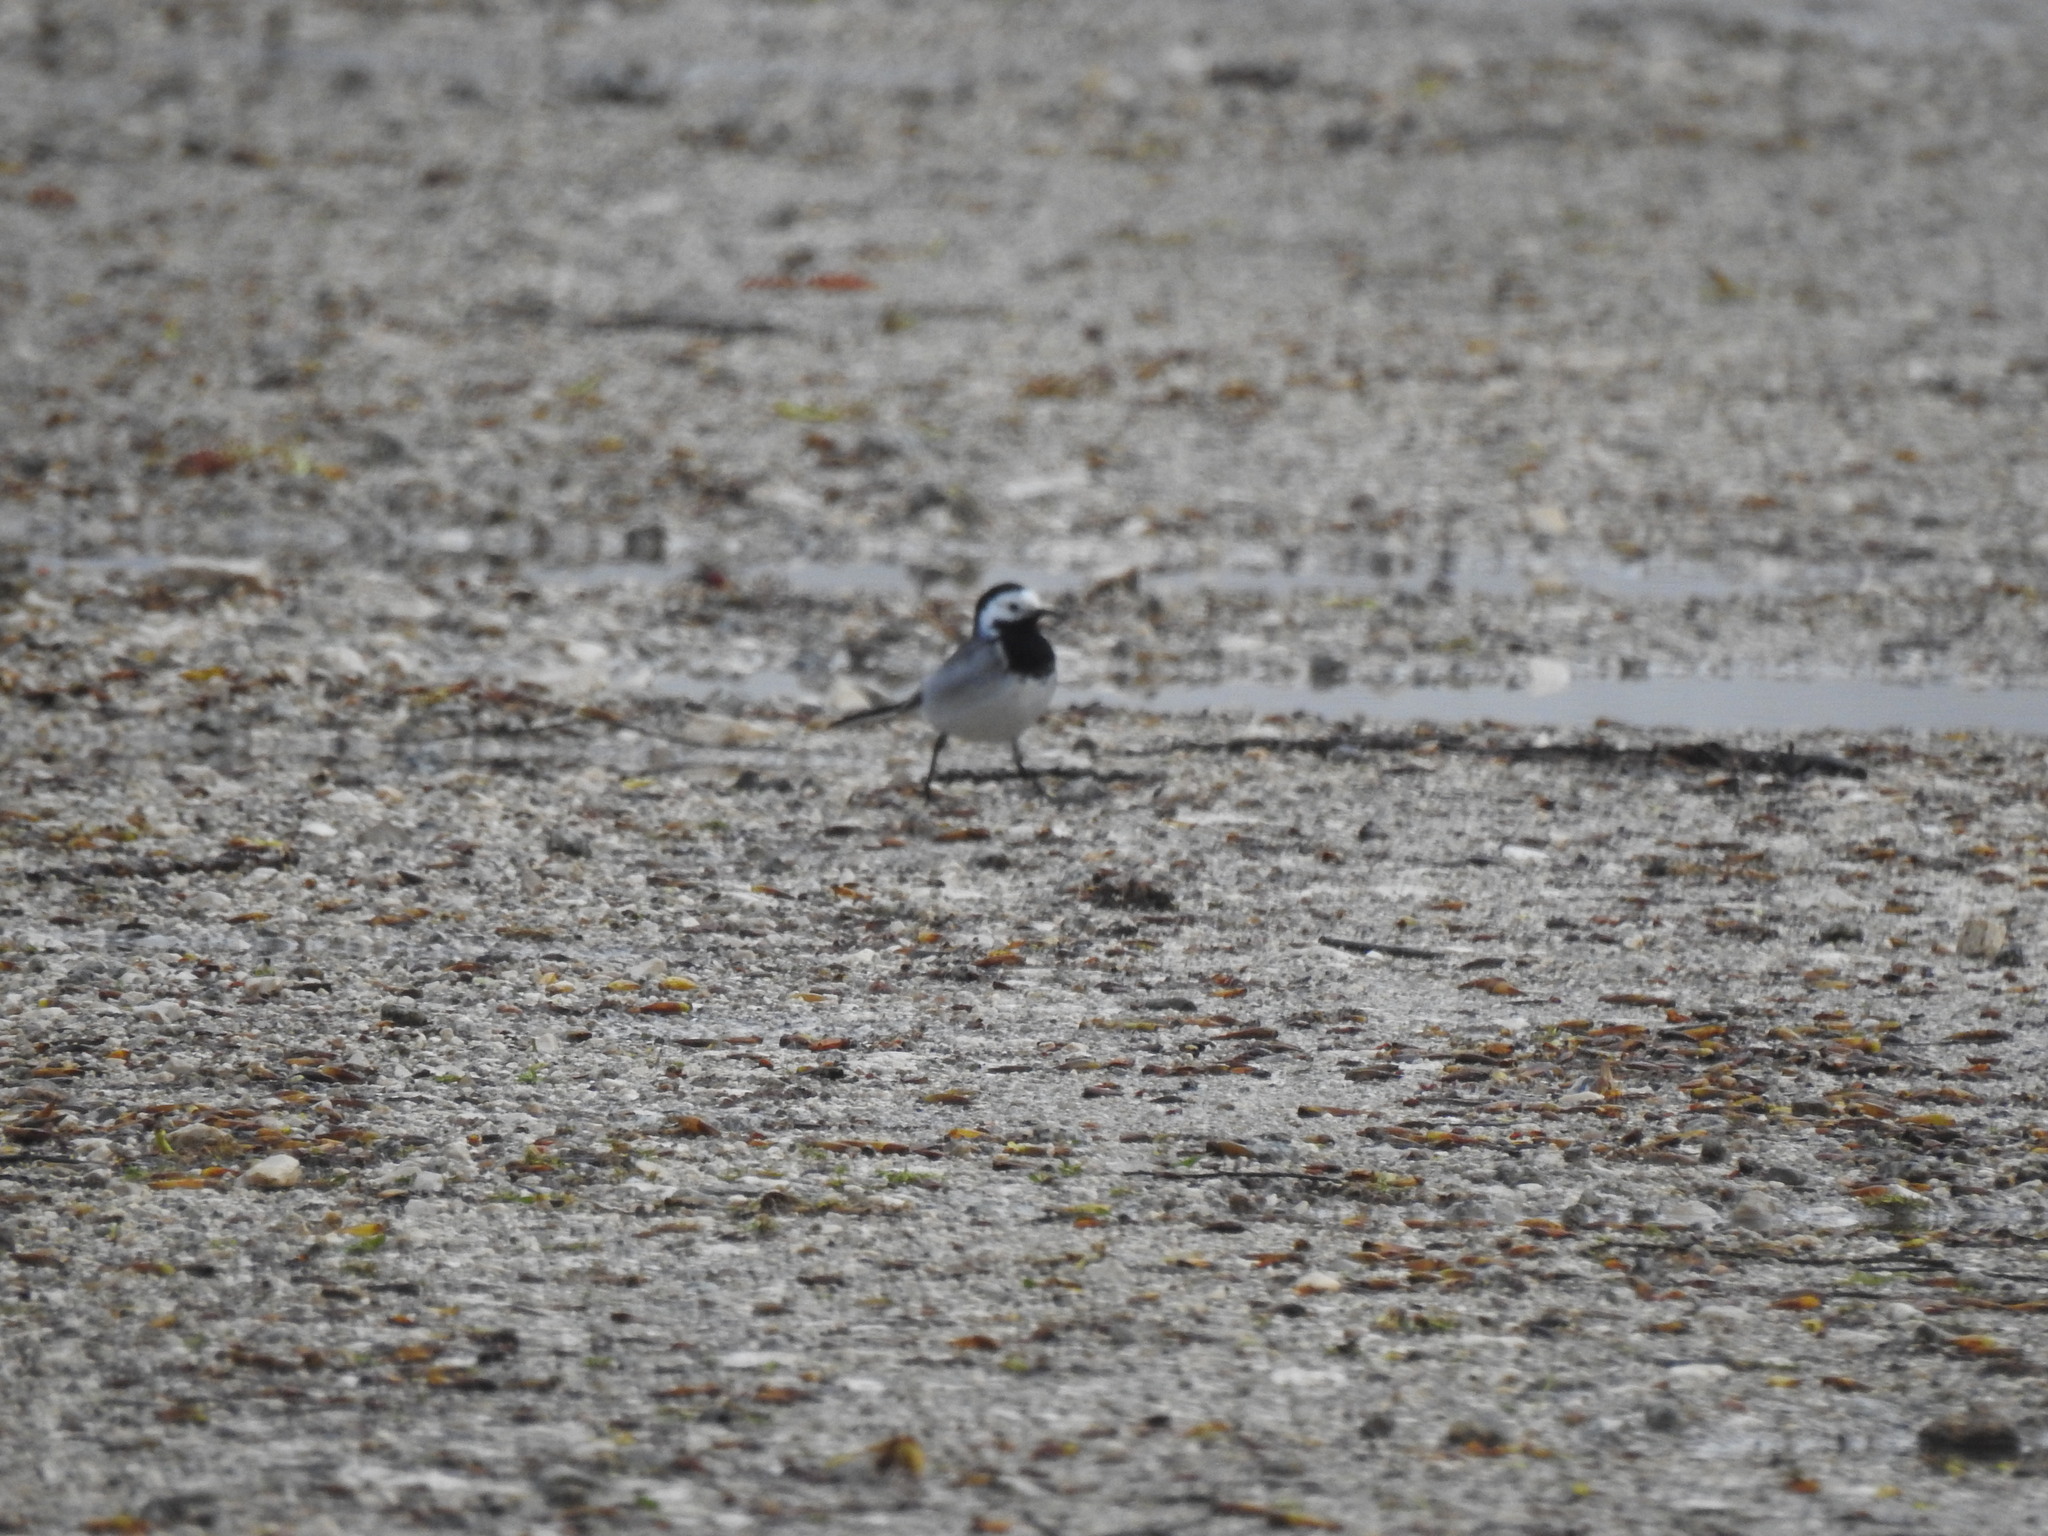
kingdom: Animalia
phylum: Chordata
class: Aves
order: Passeriformes
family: Motacillidae
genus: Motacilla
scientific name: Motacilla alba
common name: White wagtail
